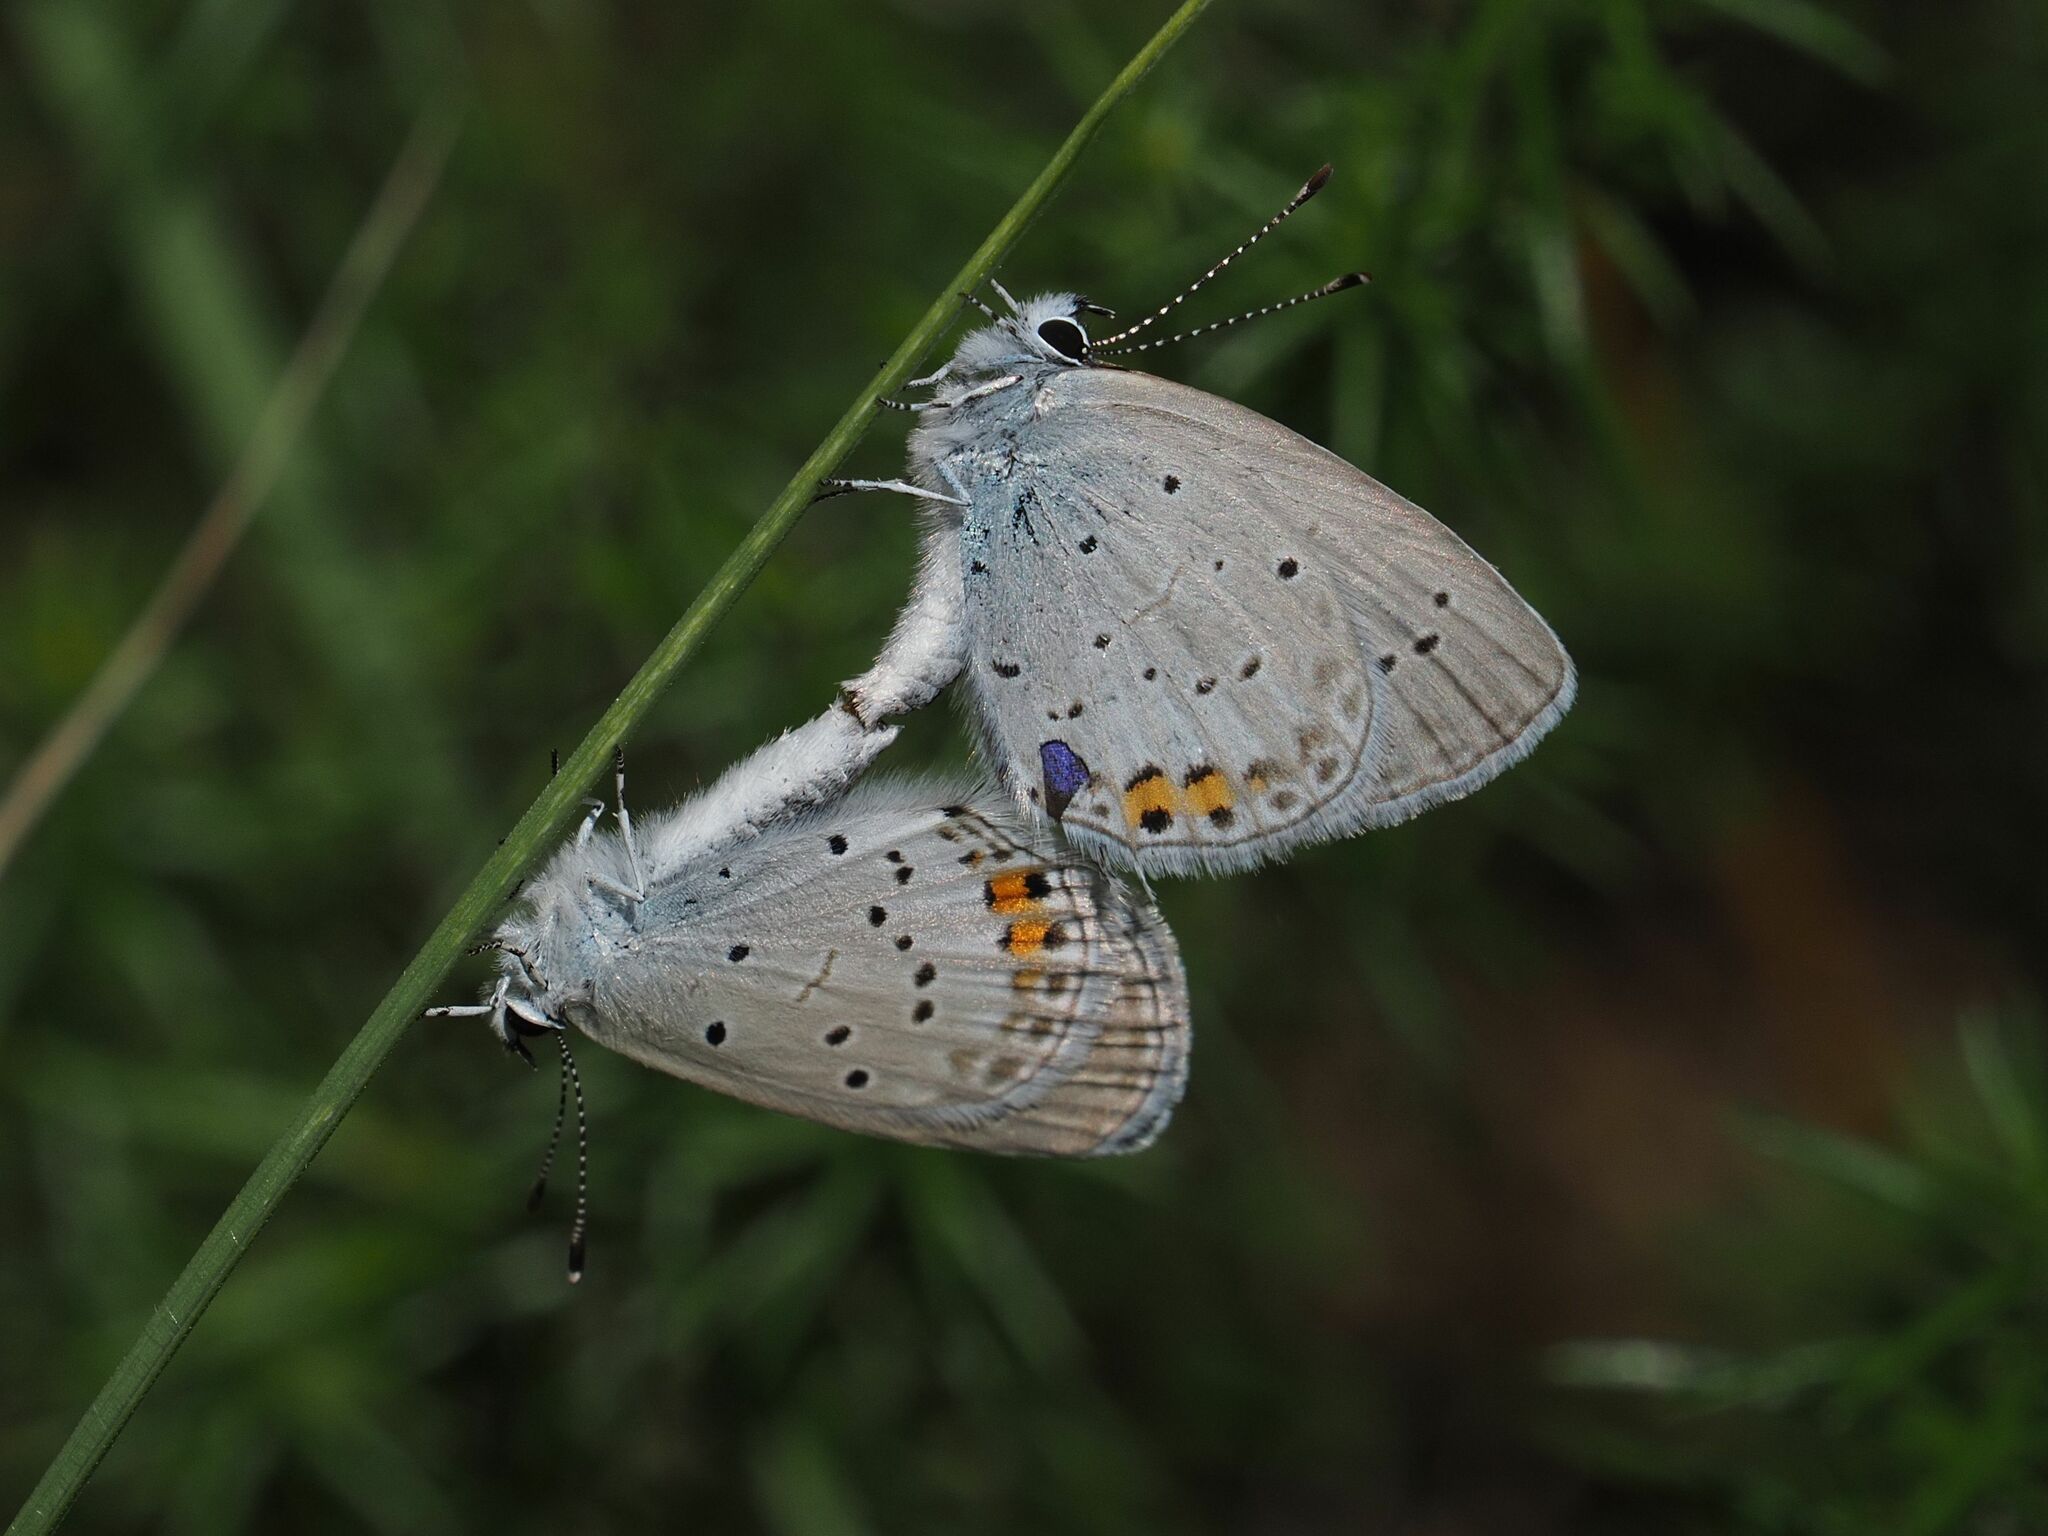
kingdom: Animalia
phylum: Arthropoda
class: Insecta
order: Lepidoptera
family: Lycaenidae
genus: Elkalyce
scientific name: Elkalyce argiades
